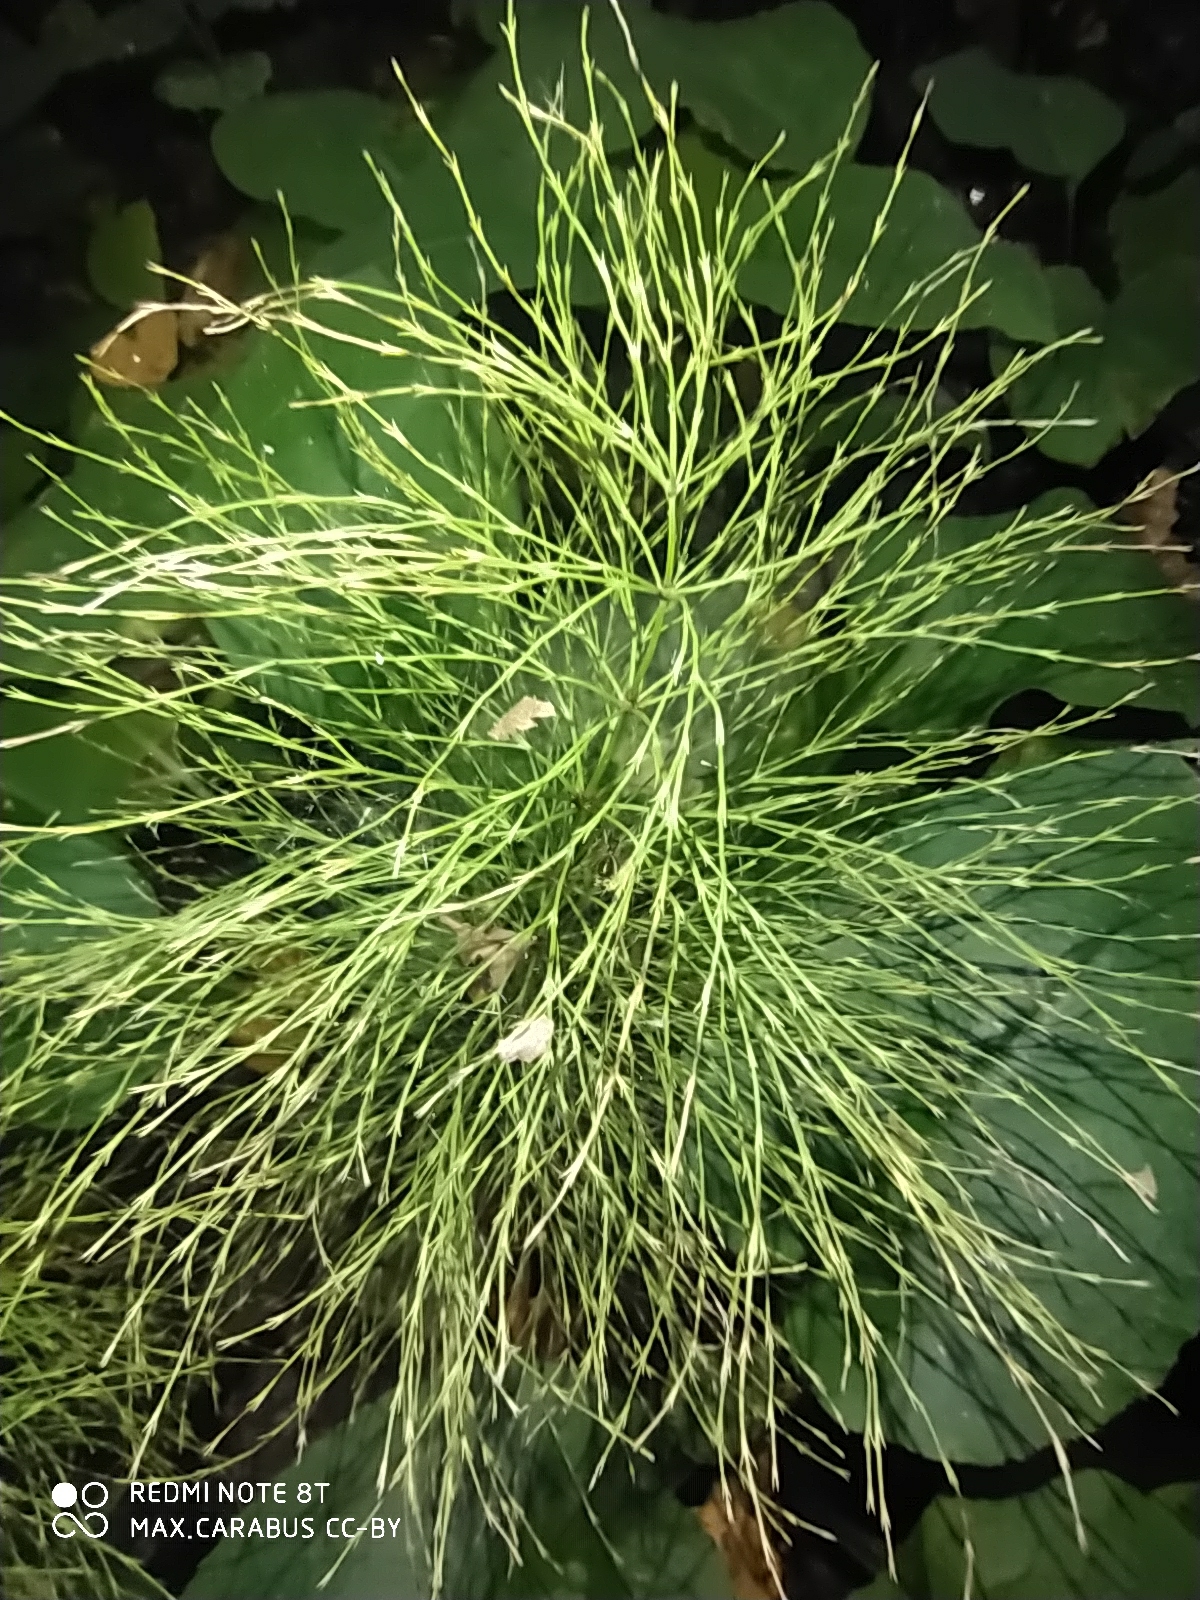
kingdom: Plantae
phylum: Tracheophyta
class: Polypodiopsida
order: Equisetales
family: Equisetaceae
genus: Equisetum
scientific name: Equisetum sylvaticum
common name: Wood horsetail
